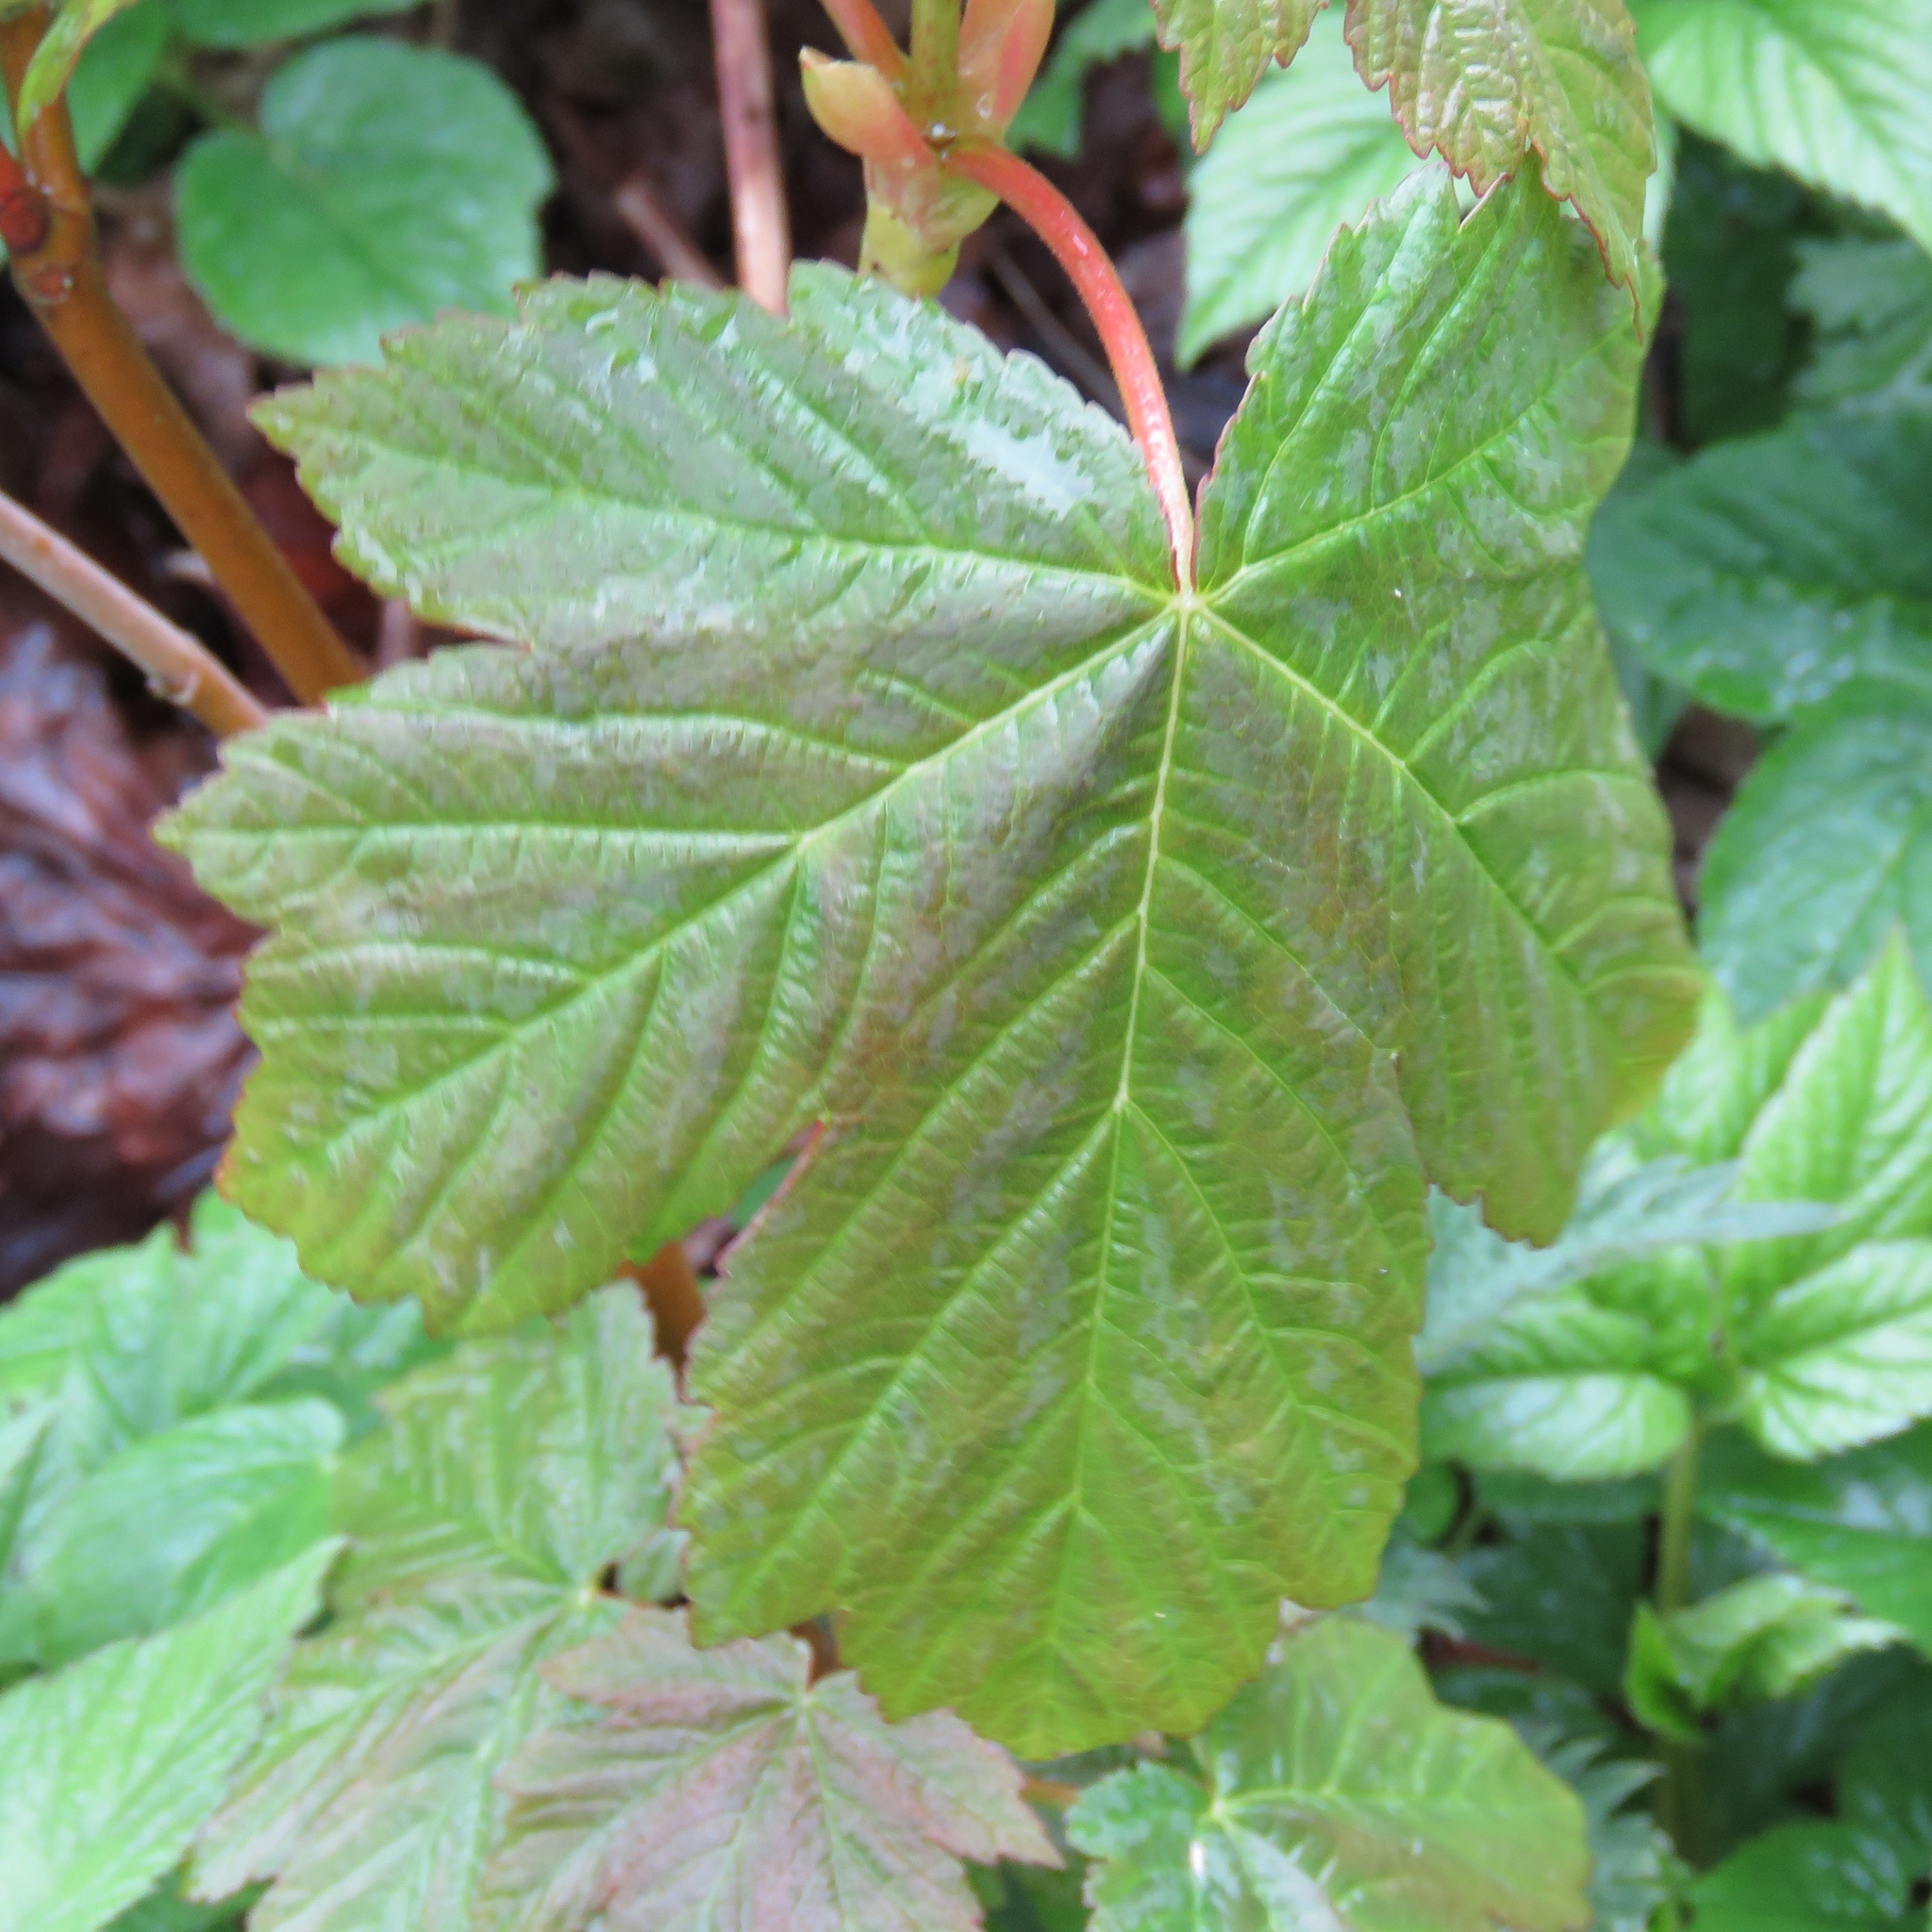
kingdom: Plantae
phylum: Tracheophyta
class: Magnoliopsida
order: Sapindales
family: Sapindaceae
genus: Acer
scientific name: Acer pseudoplatanus
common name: Sycamore
